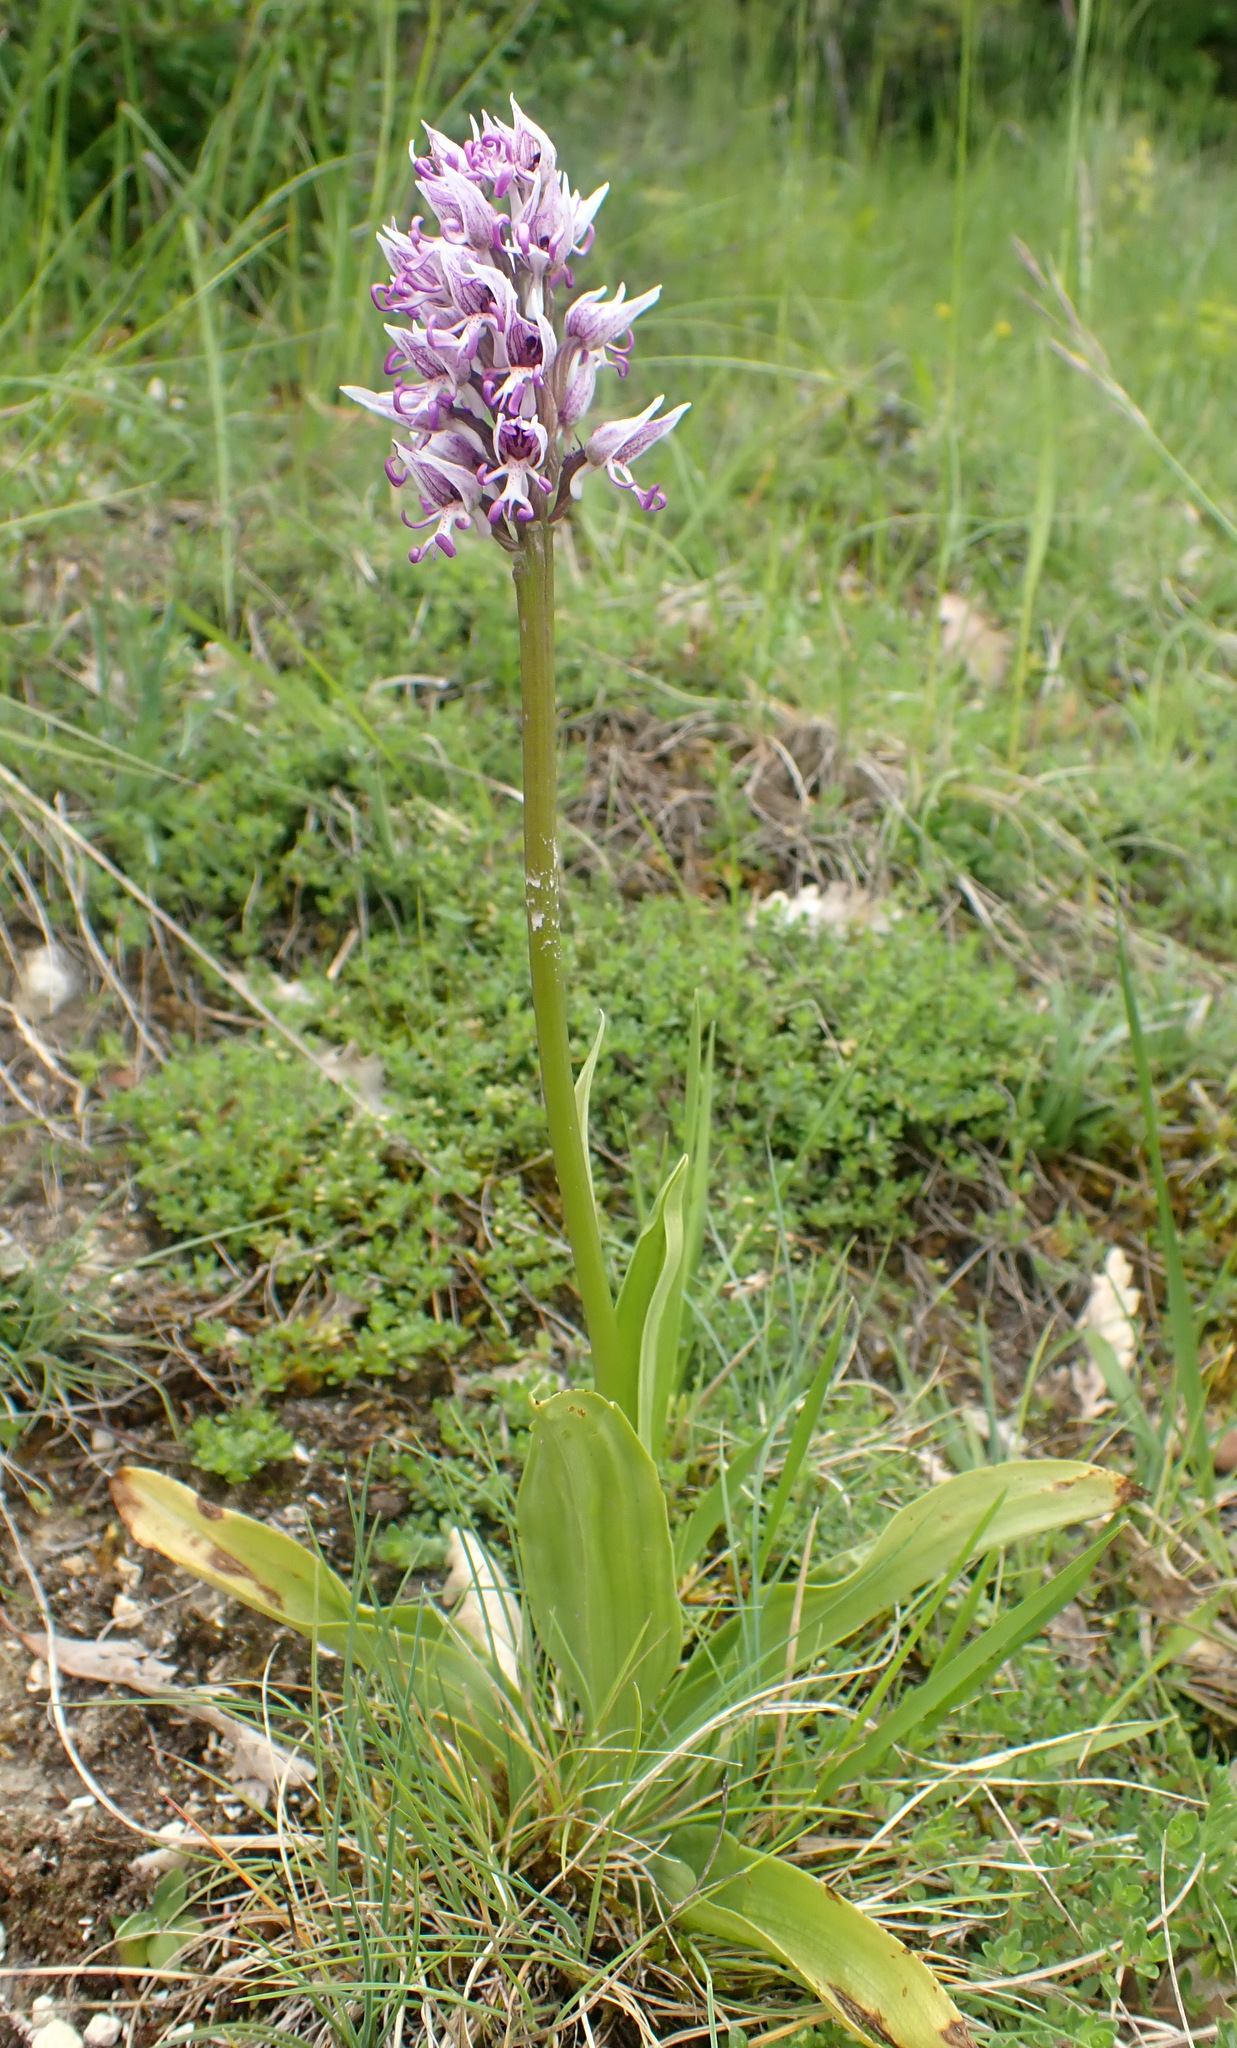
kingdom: Plantae
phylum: Tracheophyta
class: Liliopsida
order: Asparagales
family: Orchidaceae
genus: Orchis
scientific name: Orchis simia
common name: Monkey orchid
